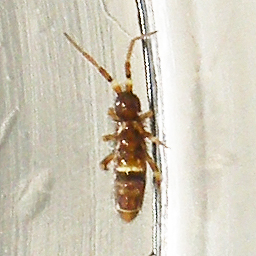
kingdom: Animalia
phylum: Arthropoda
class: Collembola
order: Entomobryomorpha
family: Orchesellidae
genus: Orchesella
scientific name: Orchesella cincta
